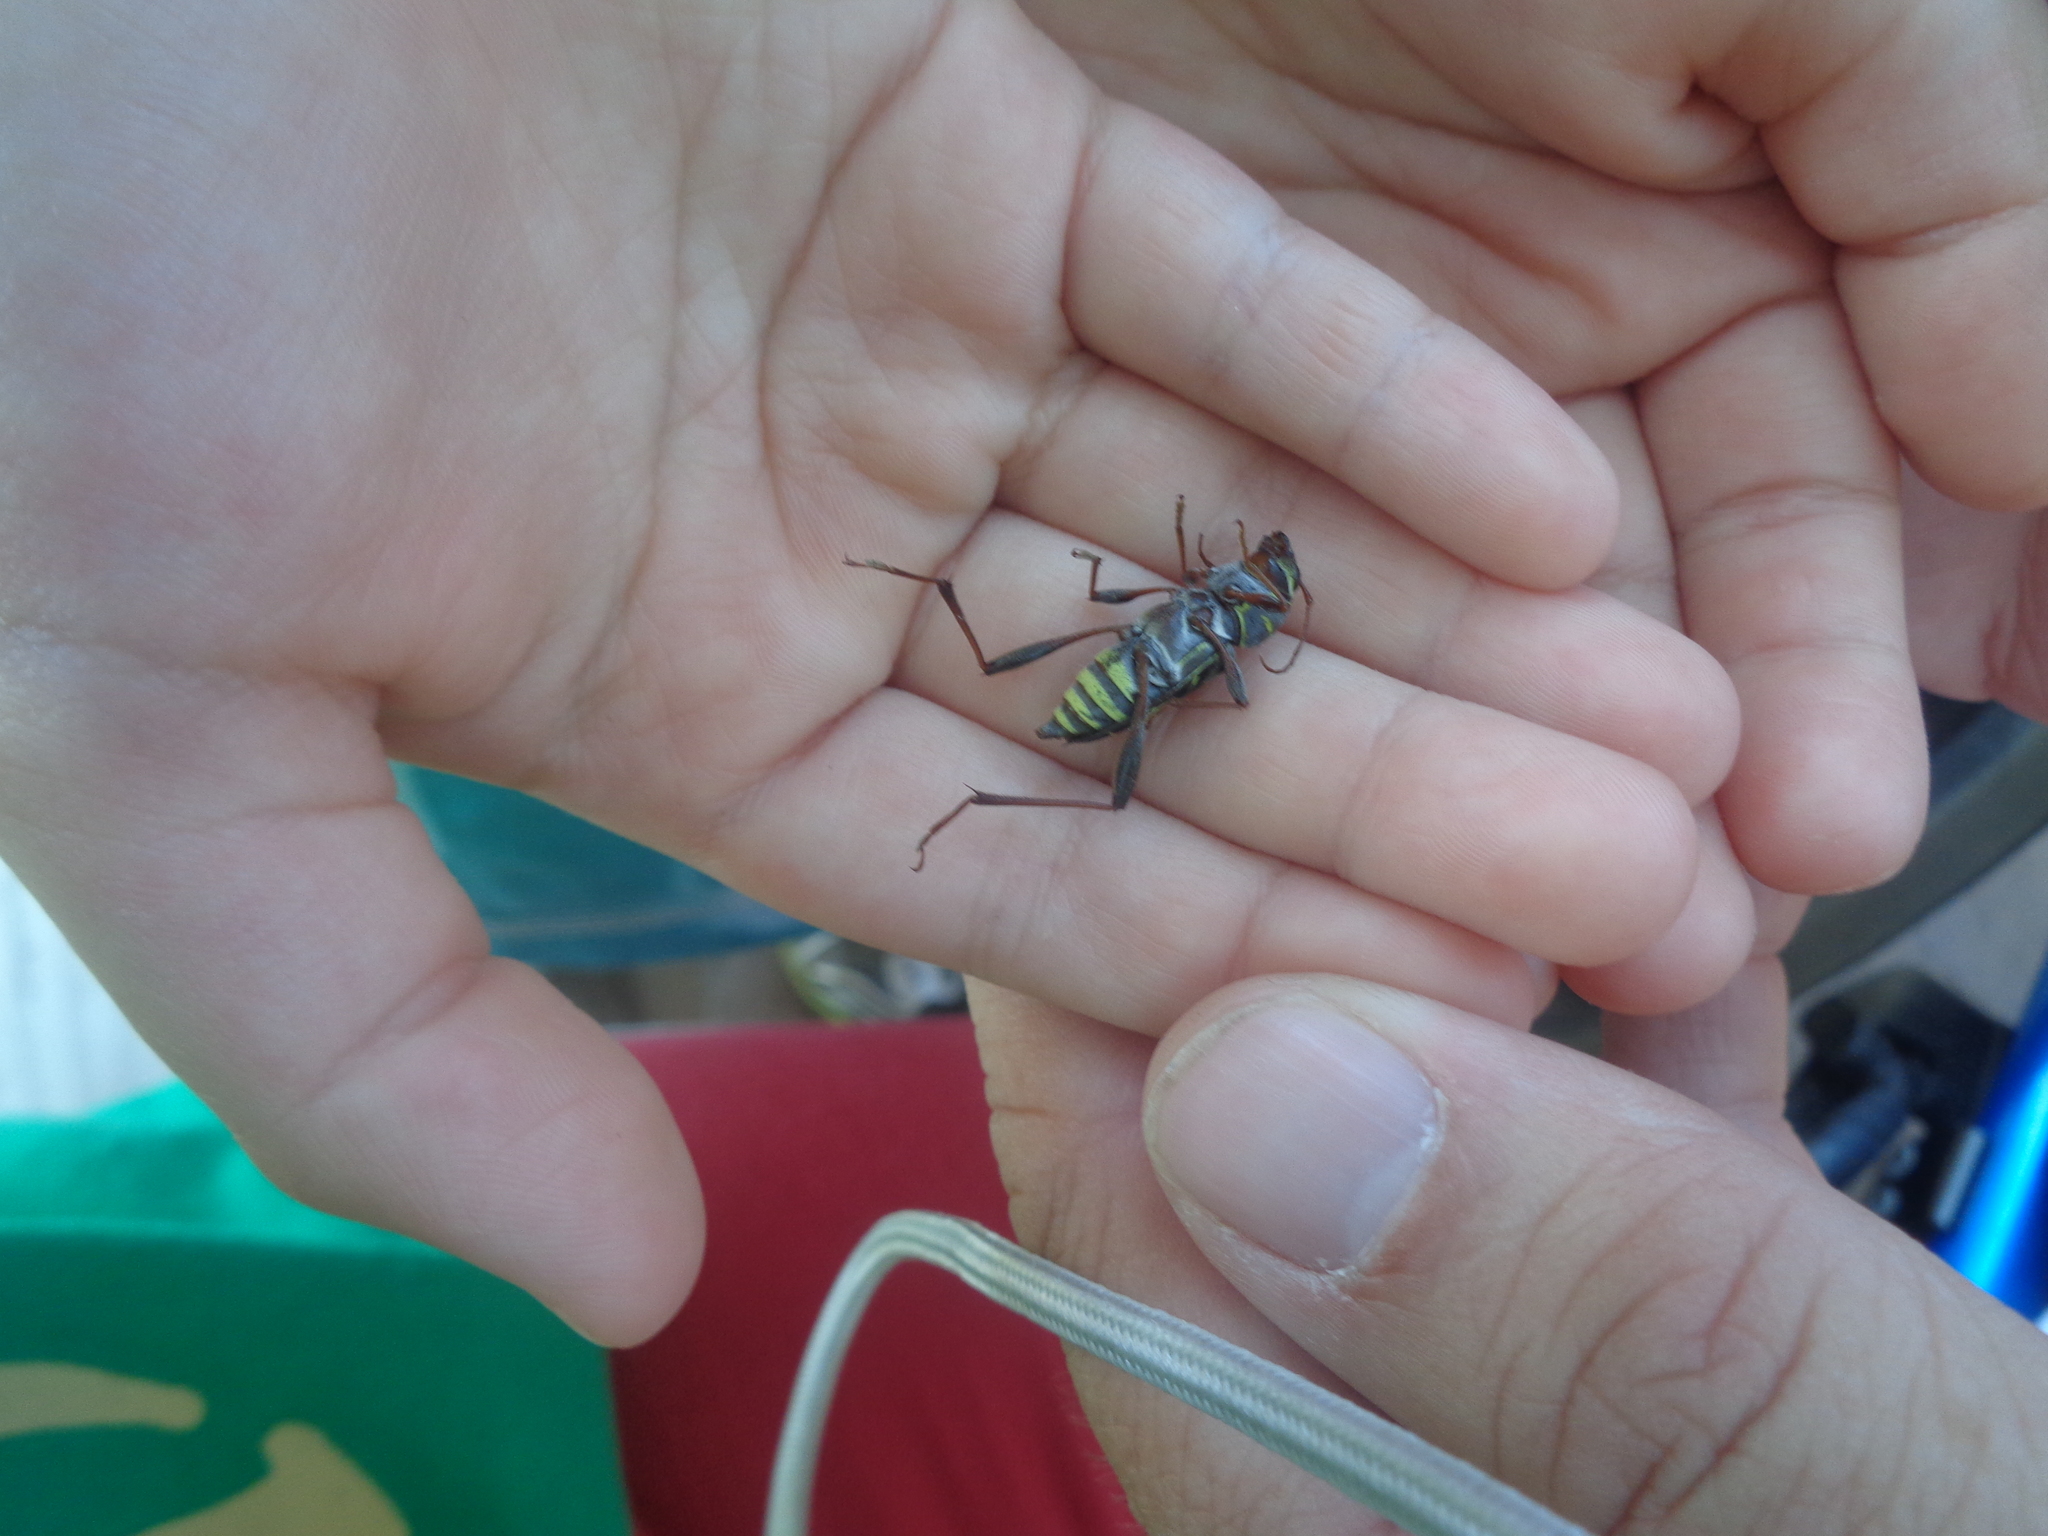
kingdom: Animalia
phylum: Arthropoda
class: Insecta
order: Coleoptera
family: Cerambycidae
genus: Neoclytus
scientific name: Neoclytus mucronatus
